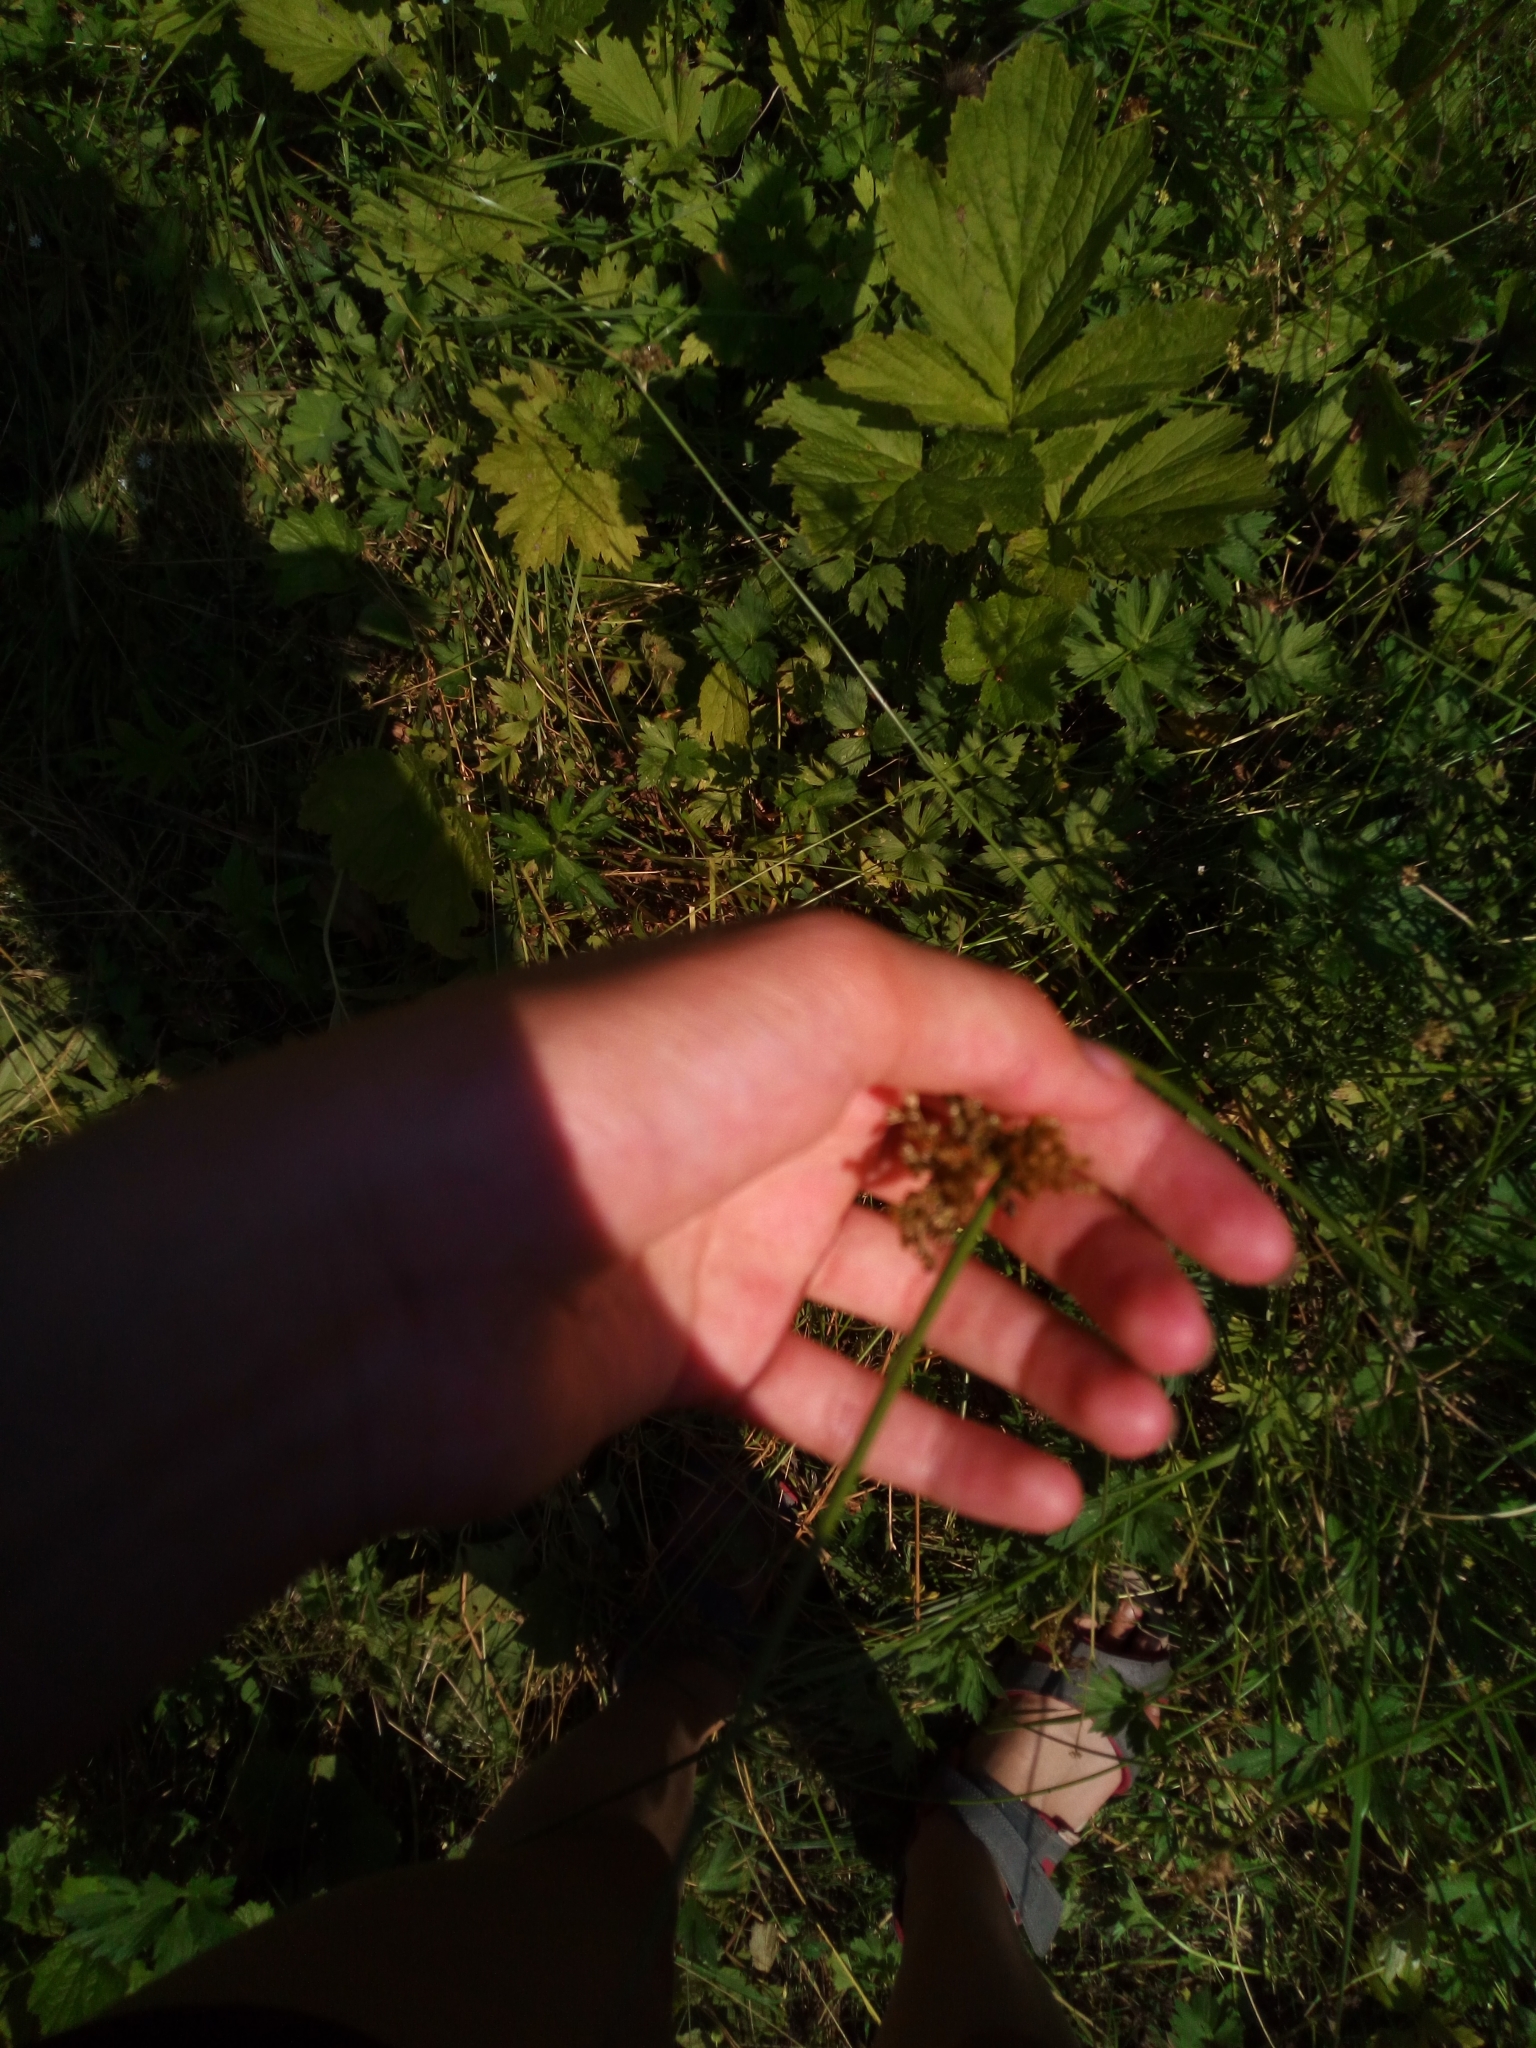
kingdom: Plantae
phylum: Tracheophyta
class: Liliopsida
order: Poales
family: Juncaceae
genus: Juncus
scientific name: Juncus effusus
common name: Soft rush
